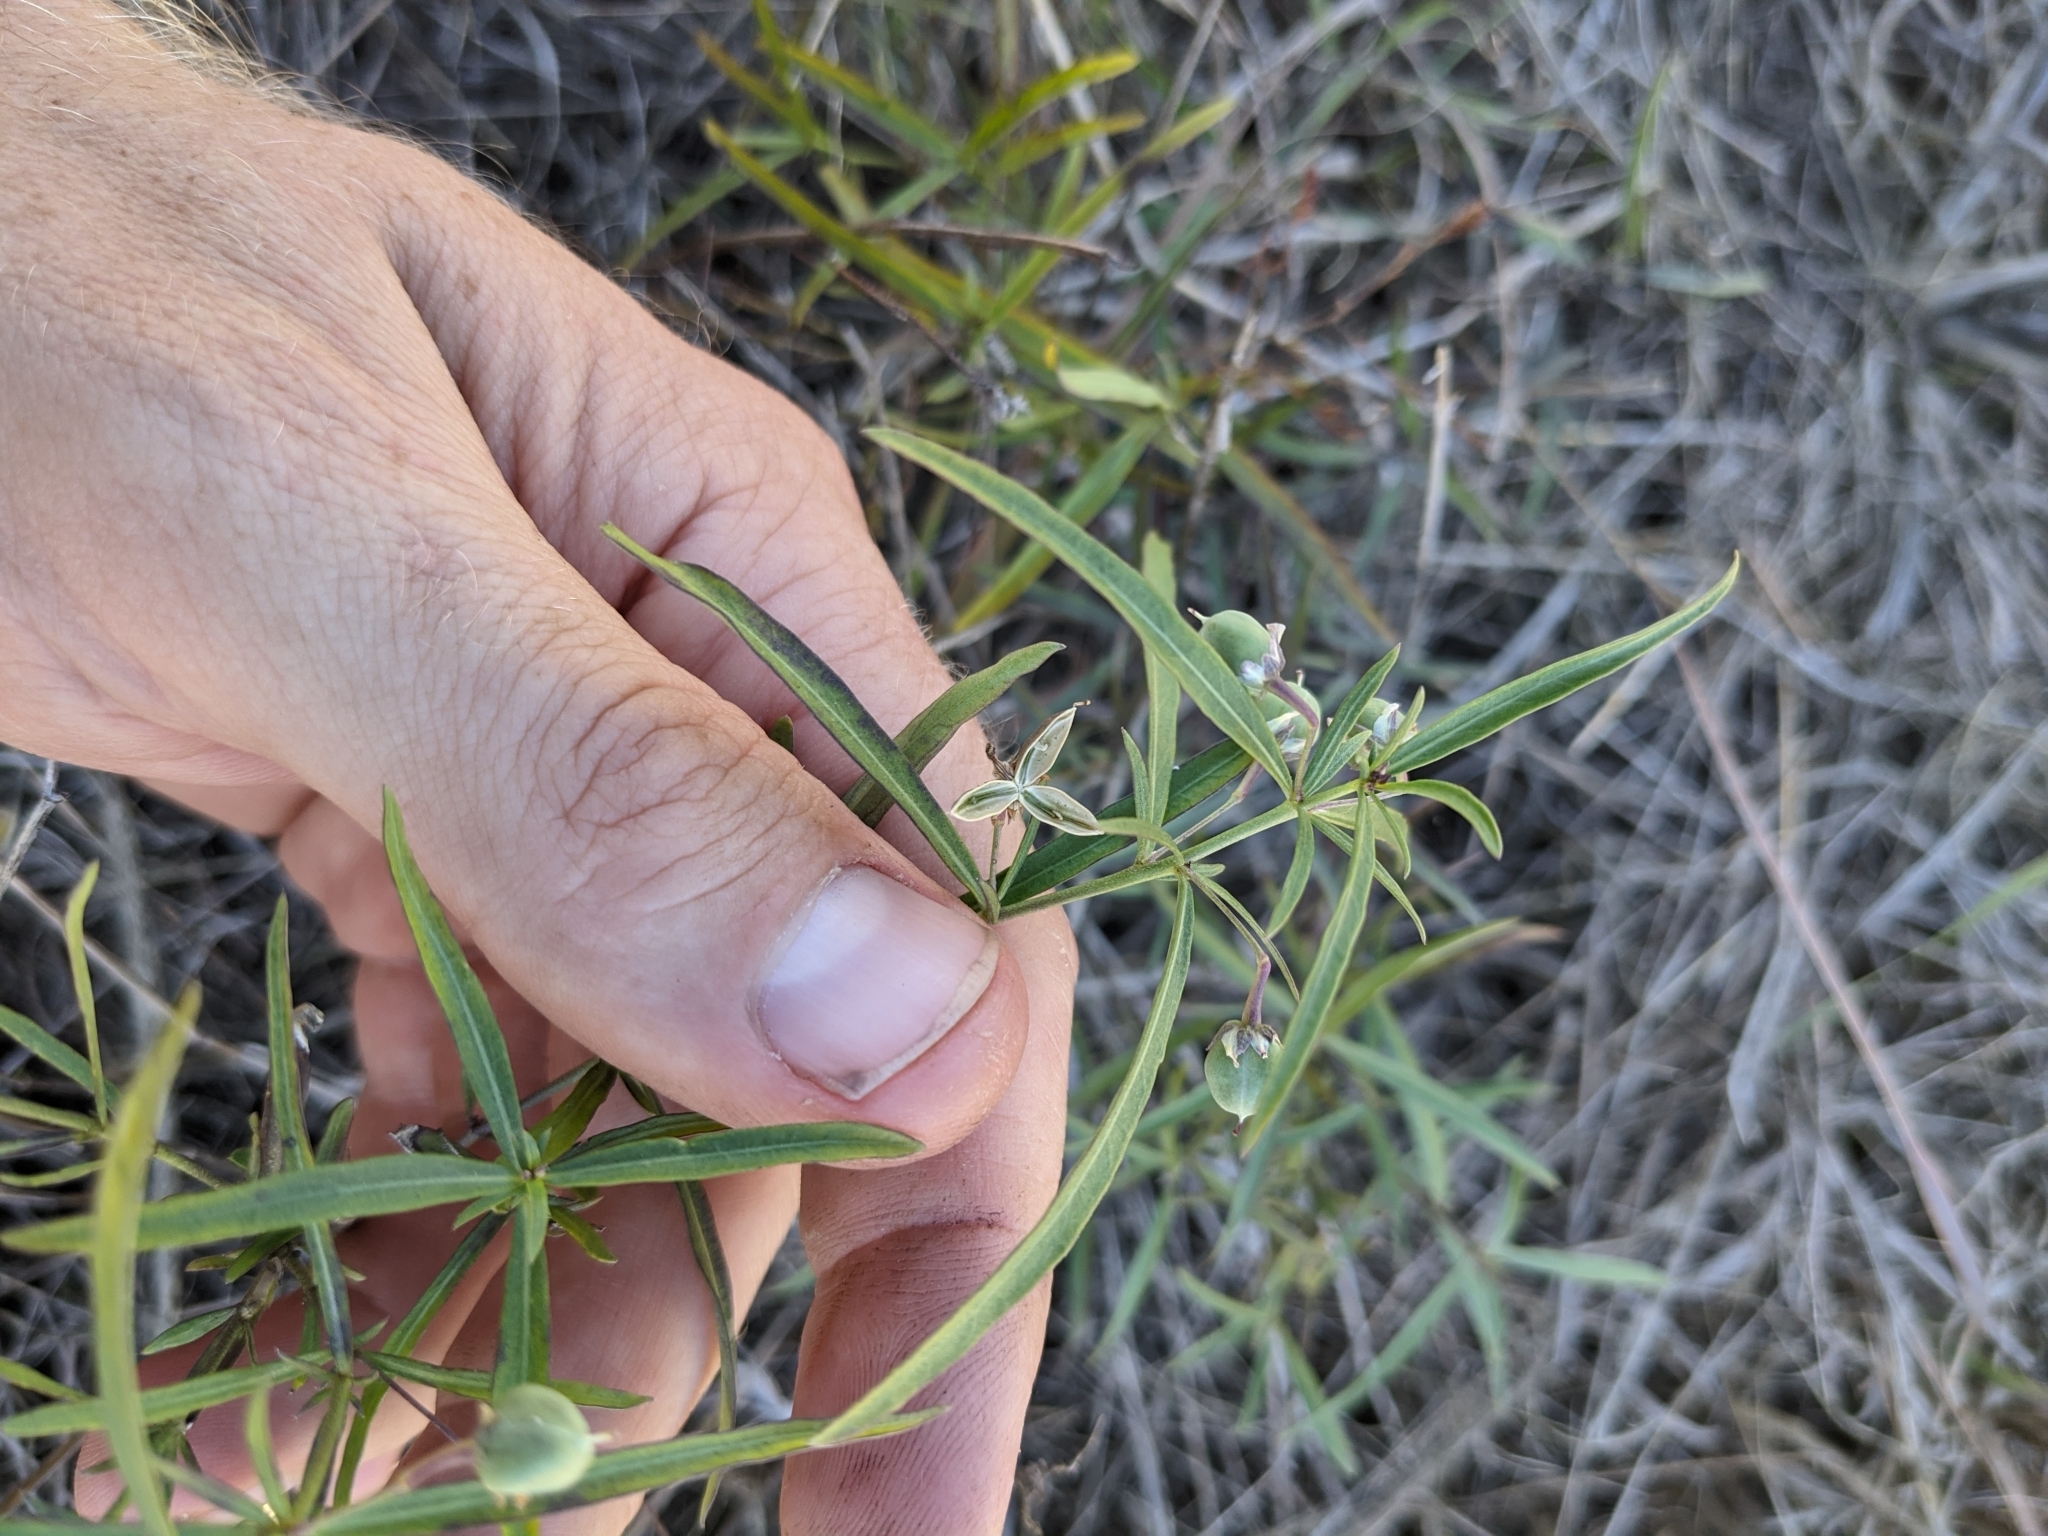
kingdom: Plantae
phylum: Tracheophyta
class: Magnoliopsida
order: Malpighiales
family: Violaceae
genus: Pombalia
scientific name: Pombalia verticillata
